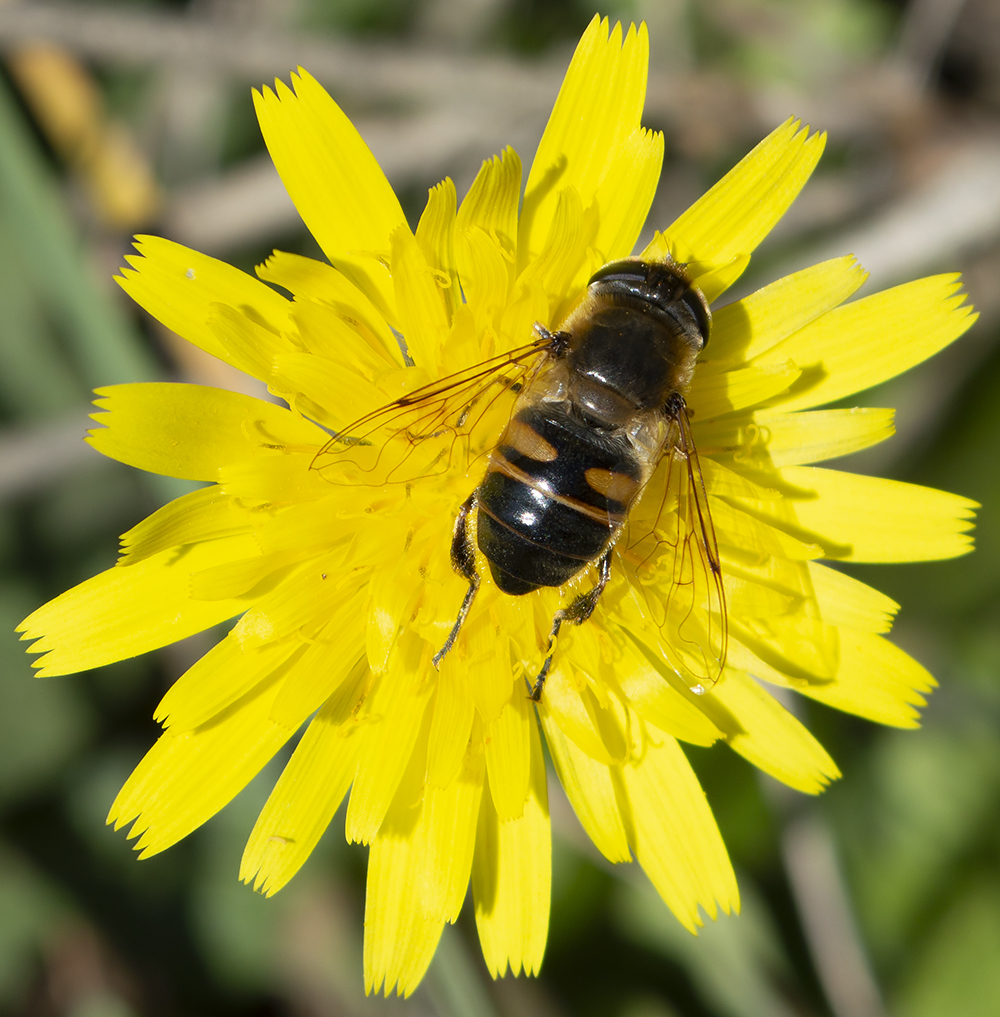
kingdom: Animalia
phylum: Arthropoda
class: Insecta
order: Diptera
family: Syrphidae
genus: Eristalis
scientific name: Eristalis tenax
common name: Drone fly
